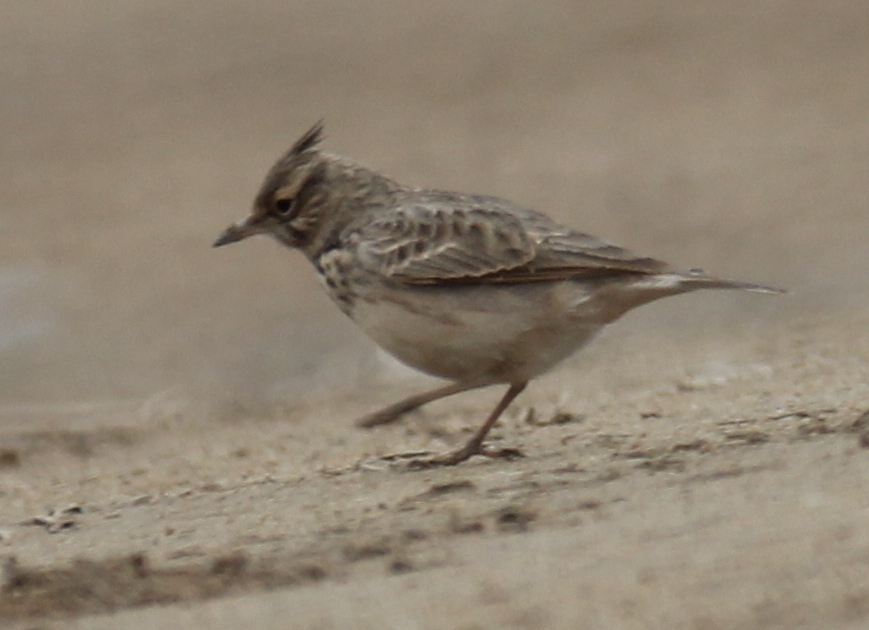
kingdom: Animalia
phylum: Chordata
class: Aves
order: Passeriformes
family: Alaudidae
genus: Galerida
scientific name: Galerida cristata
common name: Crested lark
